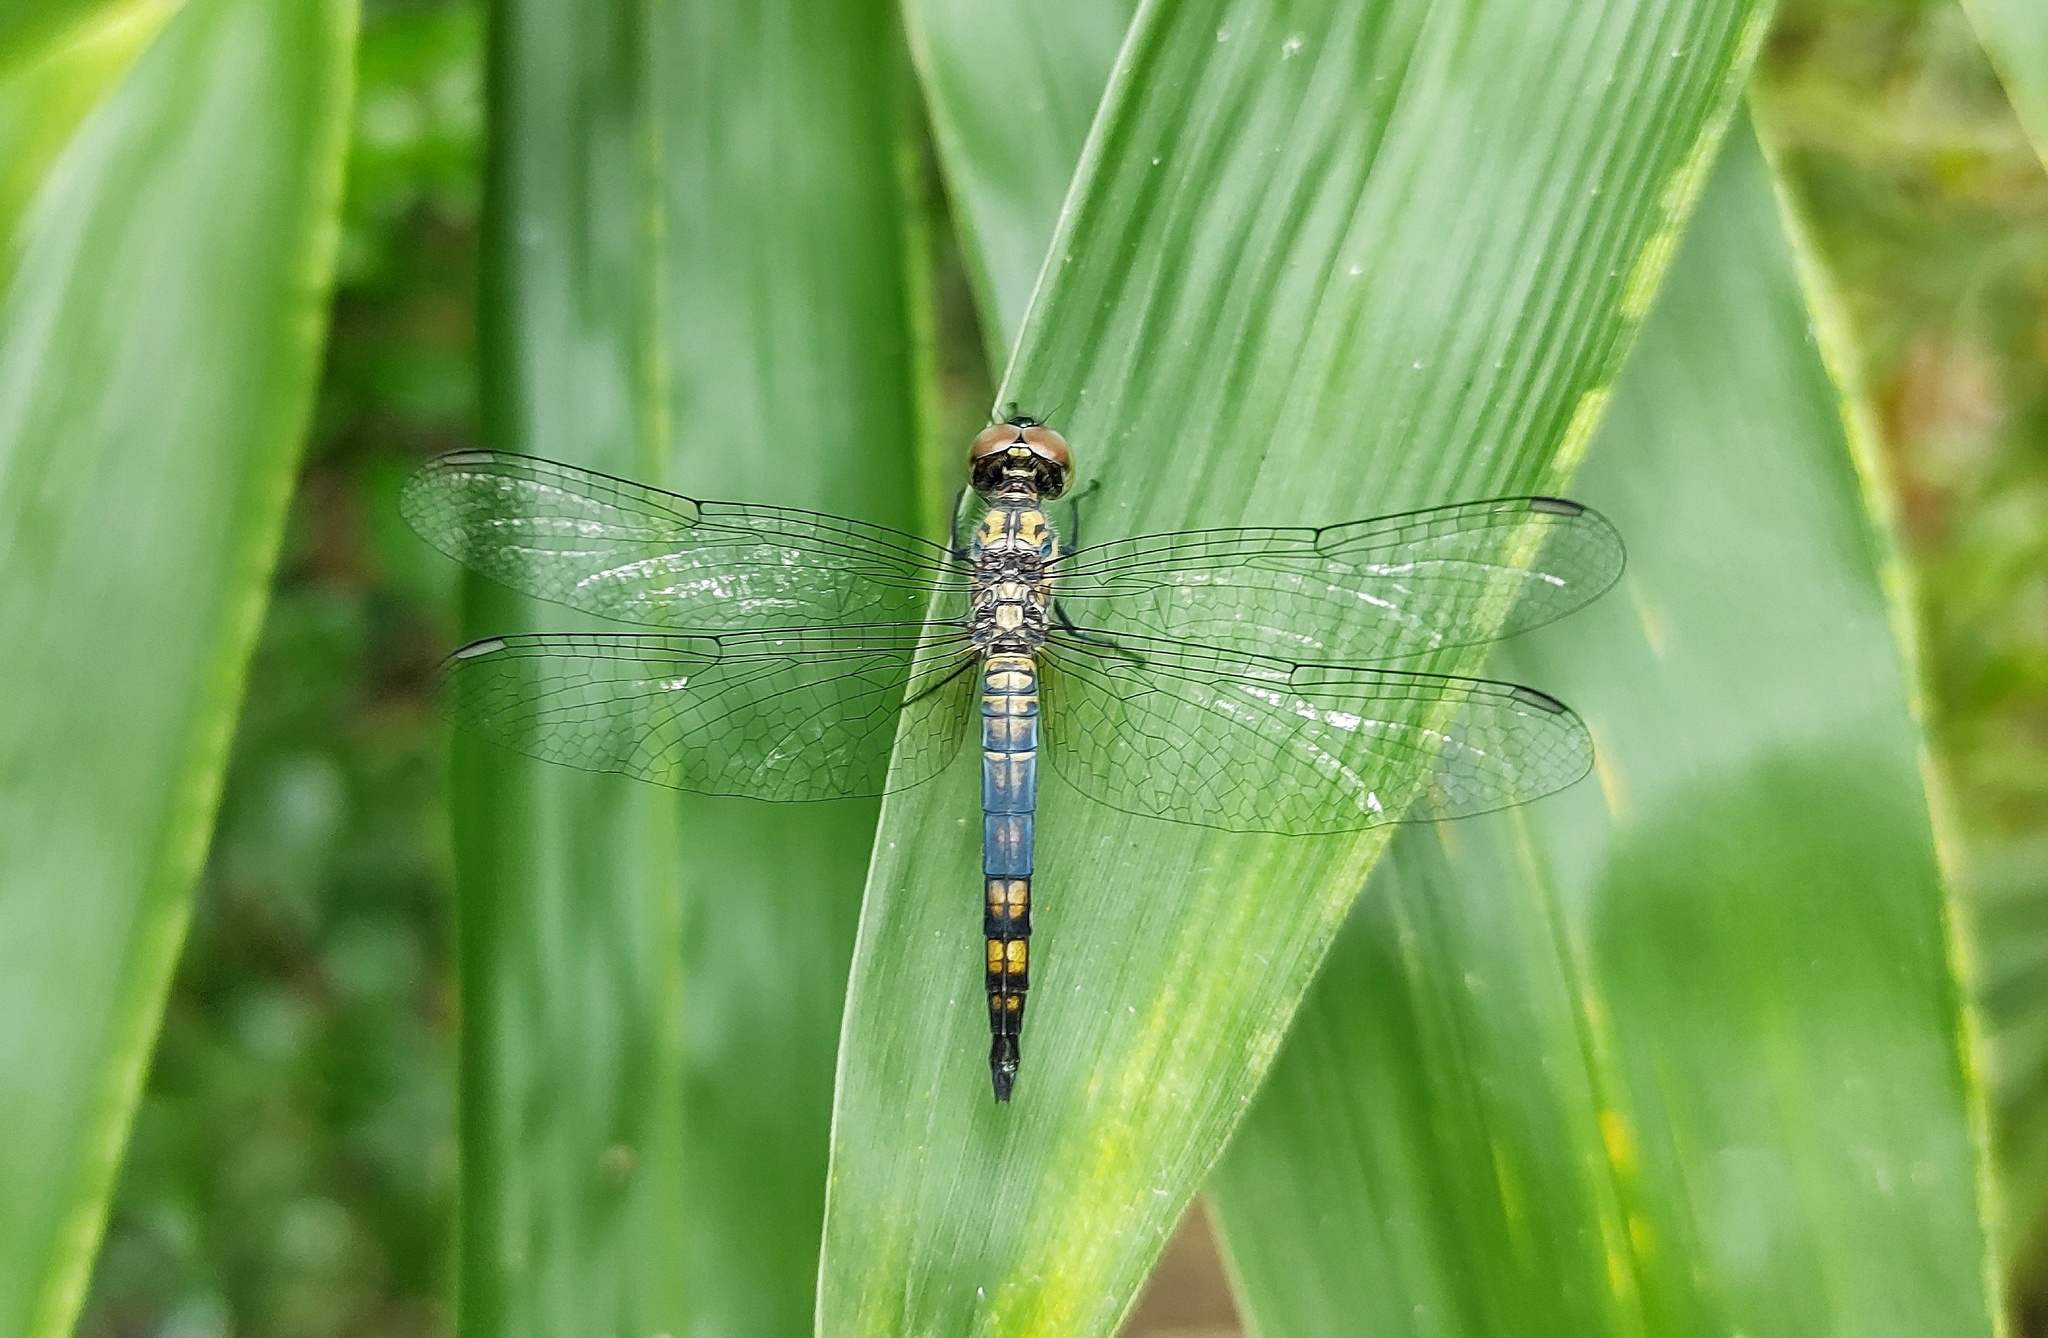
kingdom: Animalia
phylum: Arthropoda
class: Insecta
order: Odonata
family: Libellulidae
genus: Brachydiplax
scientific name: Brachydiplax chalybea
